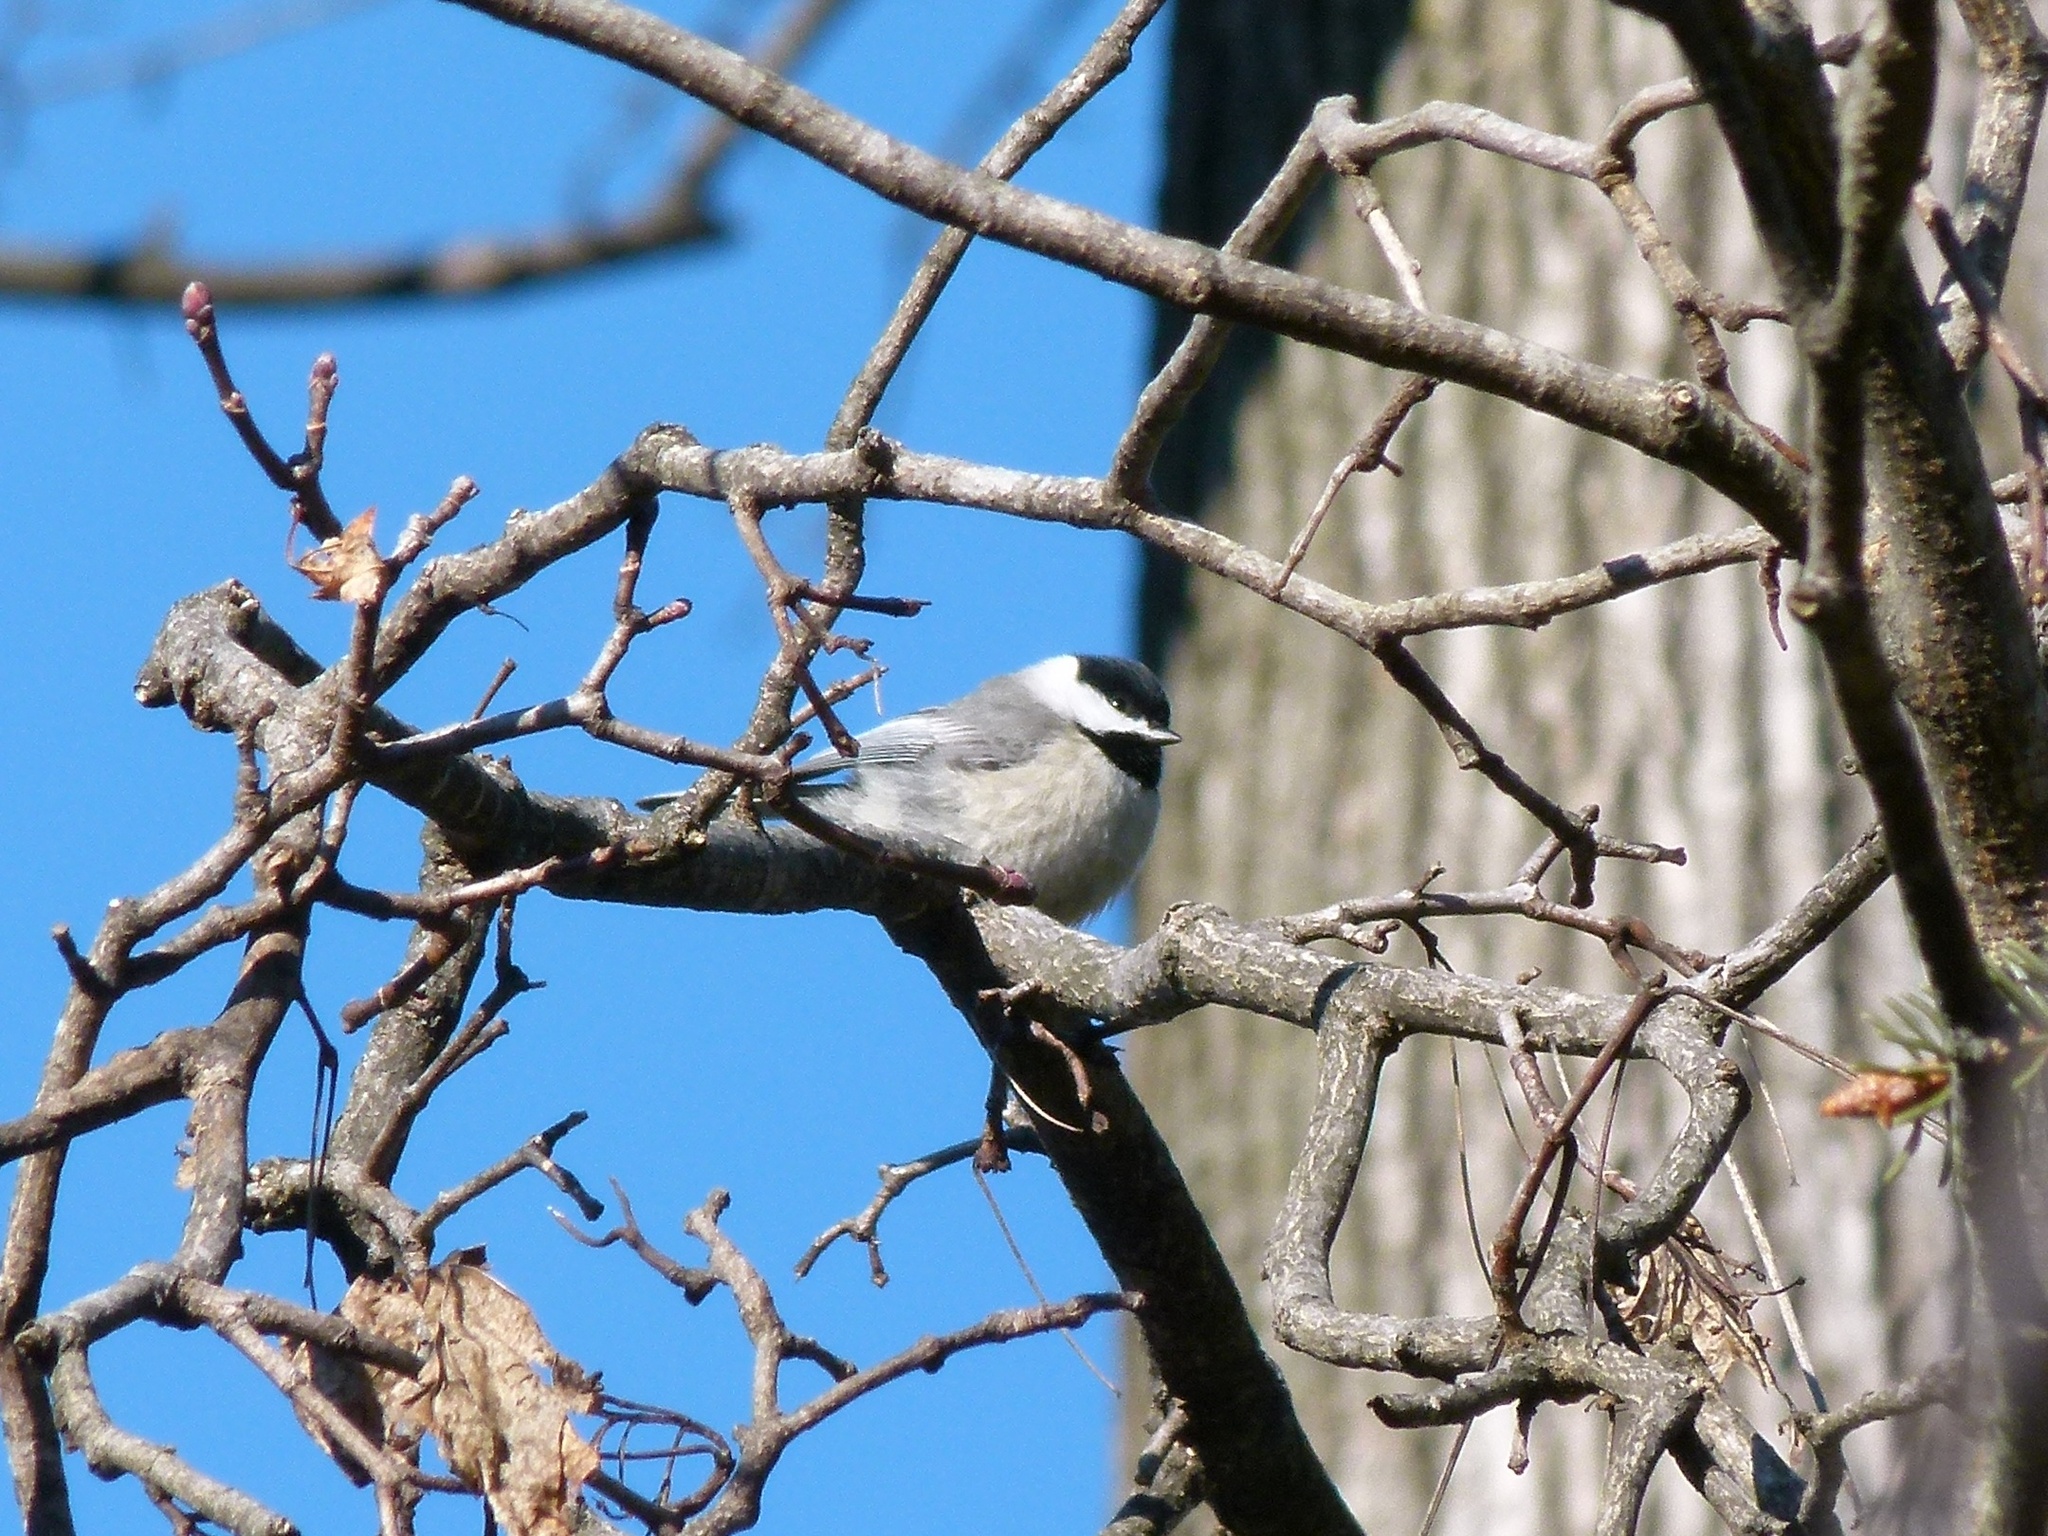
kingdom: Animalia
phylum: Chordata
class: Aves
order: Passeriformes
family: Paridae
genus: Poecile
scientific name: Poecile carolinensis
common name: Carolina chickadee
